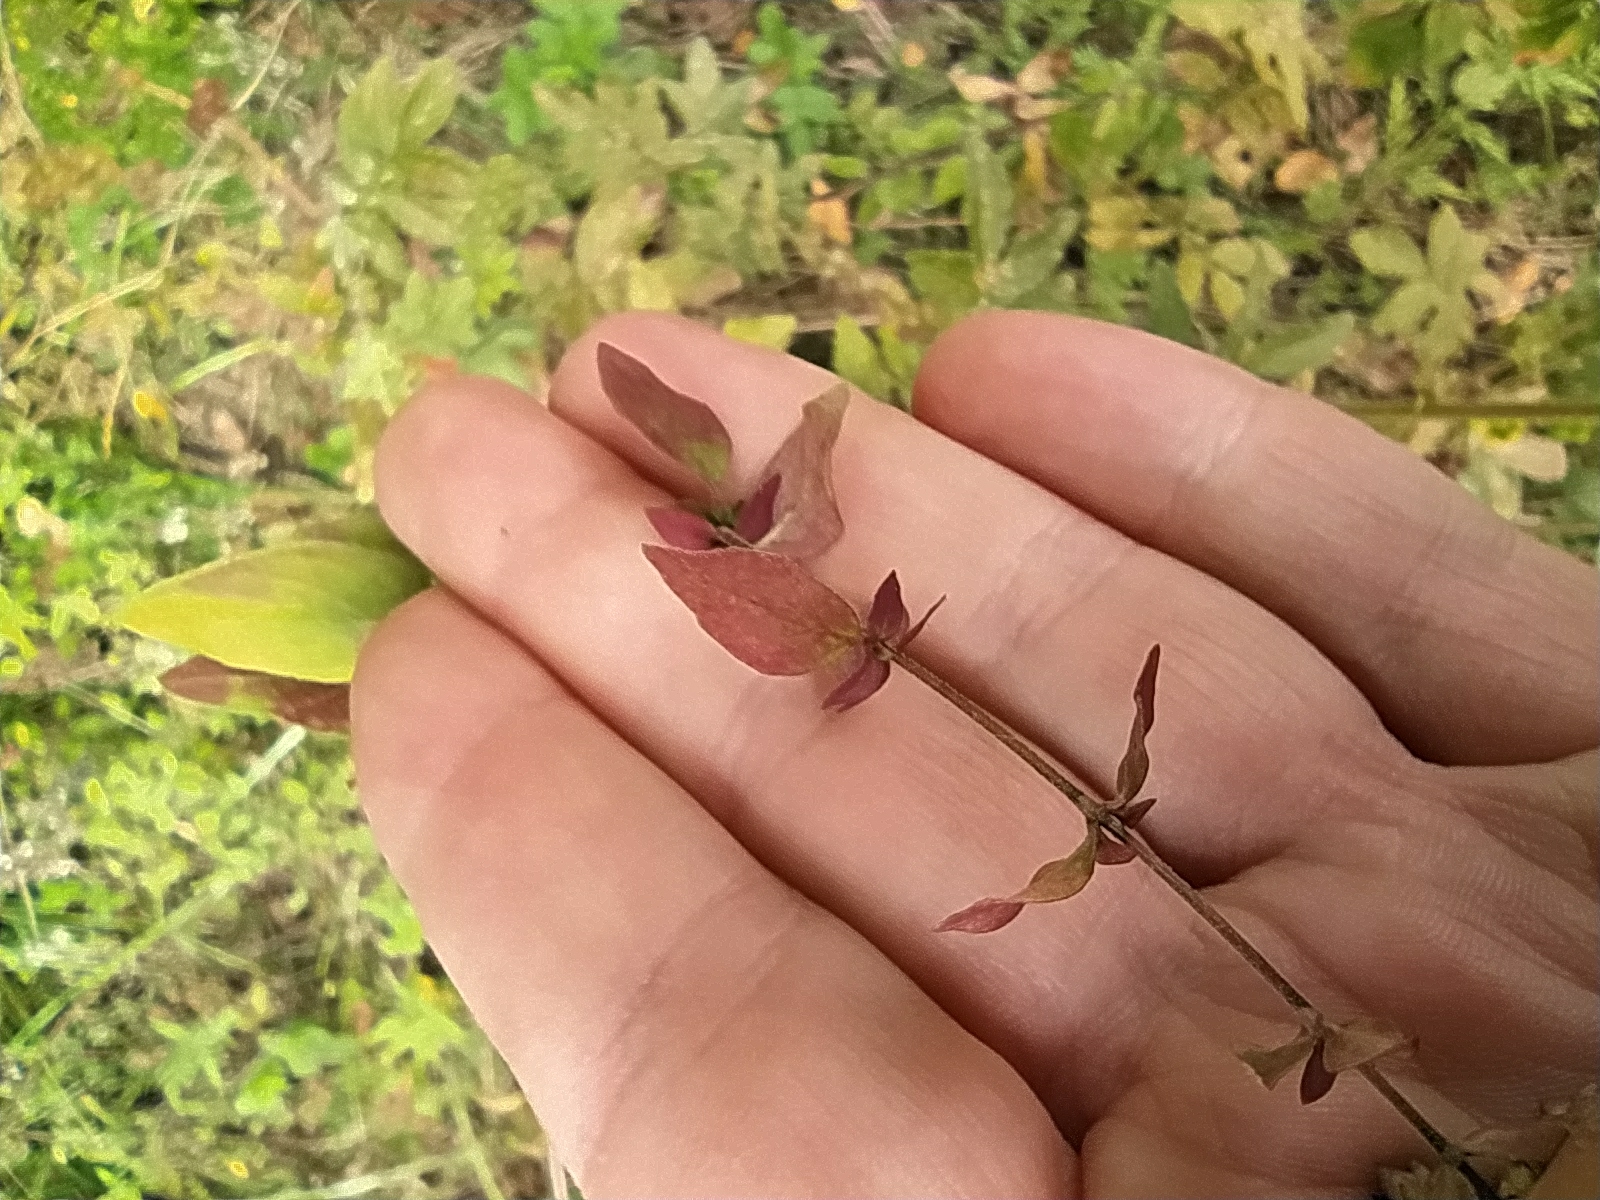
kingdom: Plantae
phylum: Tracheophyta
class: Magnoliopsida
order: Lamiales
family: Lamiaceae
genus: Origanum
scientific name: Origanum vulgare
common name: Wild marjoram
